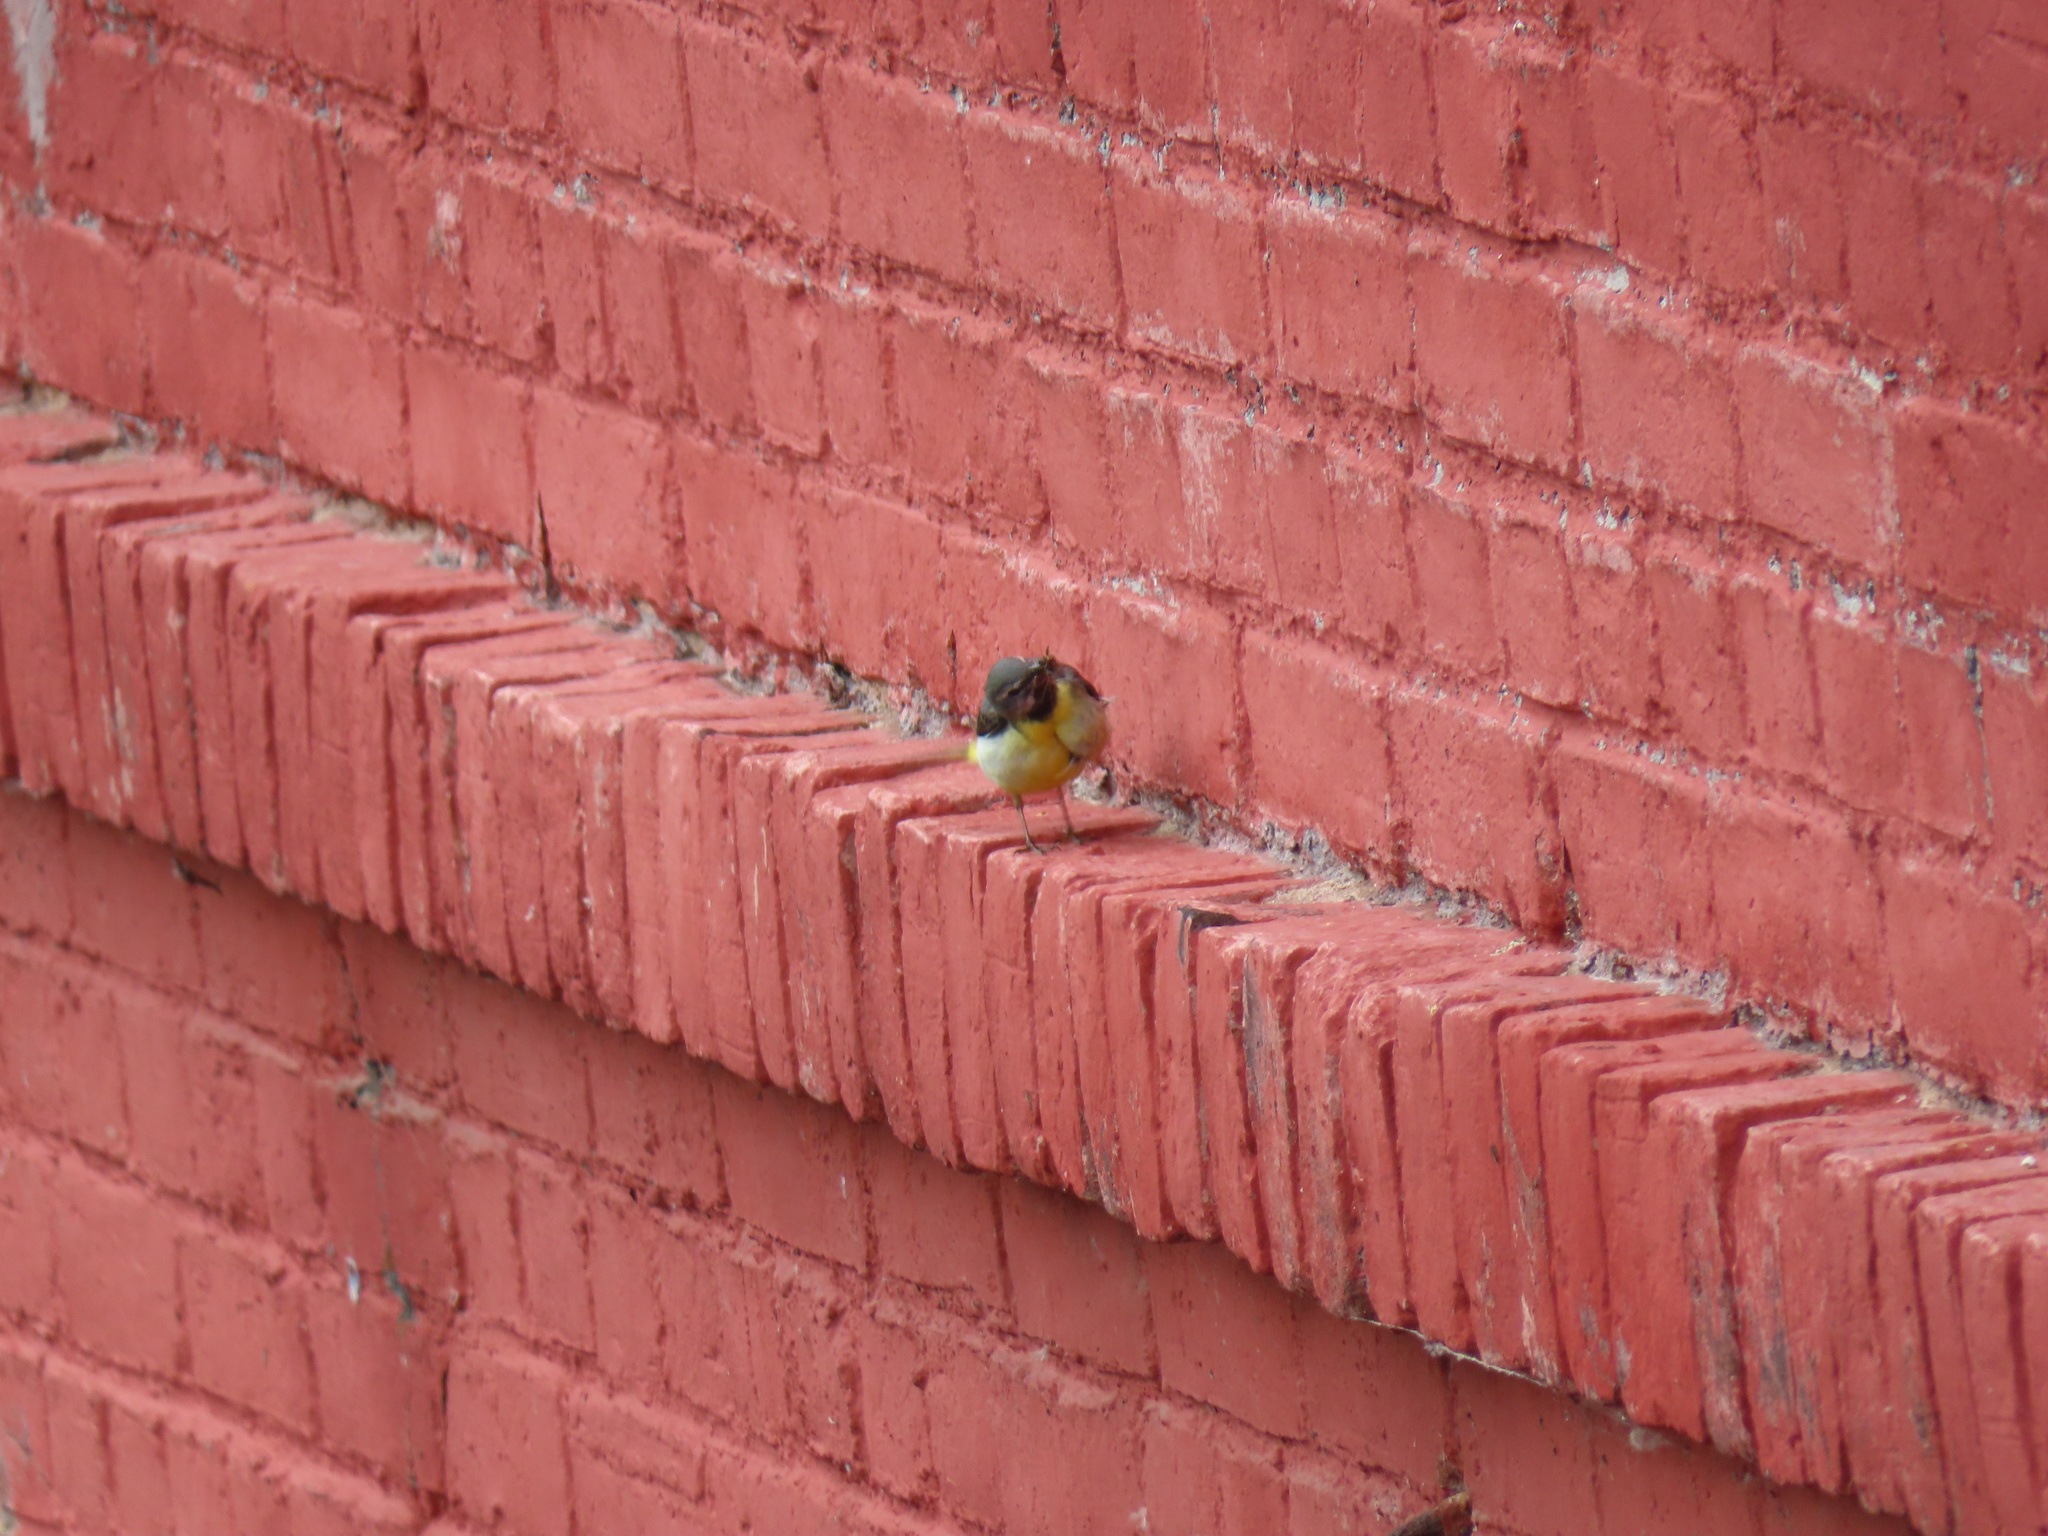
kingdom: Animalia
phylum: Chordata
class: Aves
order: Passeriformes
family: Motacillidae
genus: Motacilla
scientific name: Motacilla cinerea
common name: Grey wagtail
